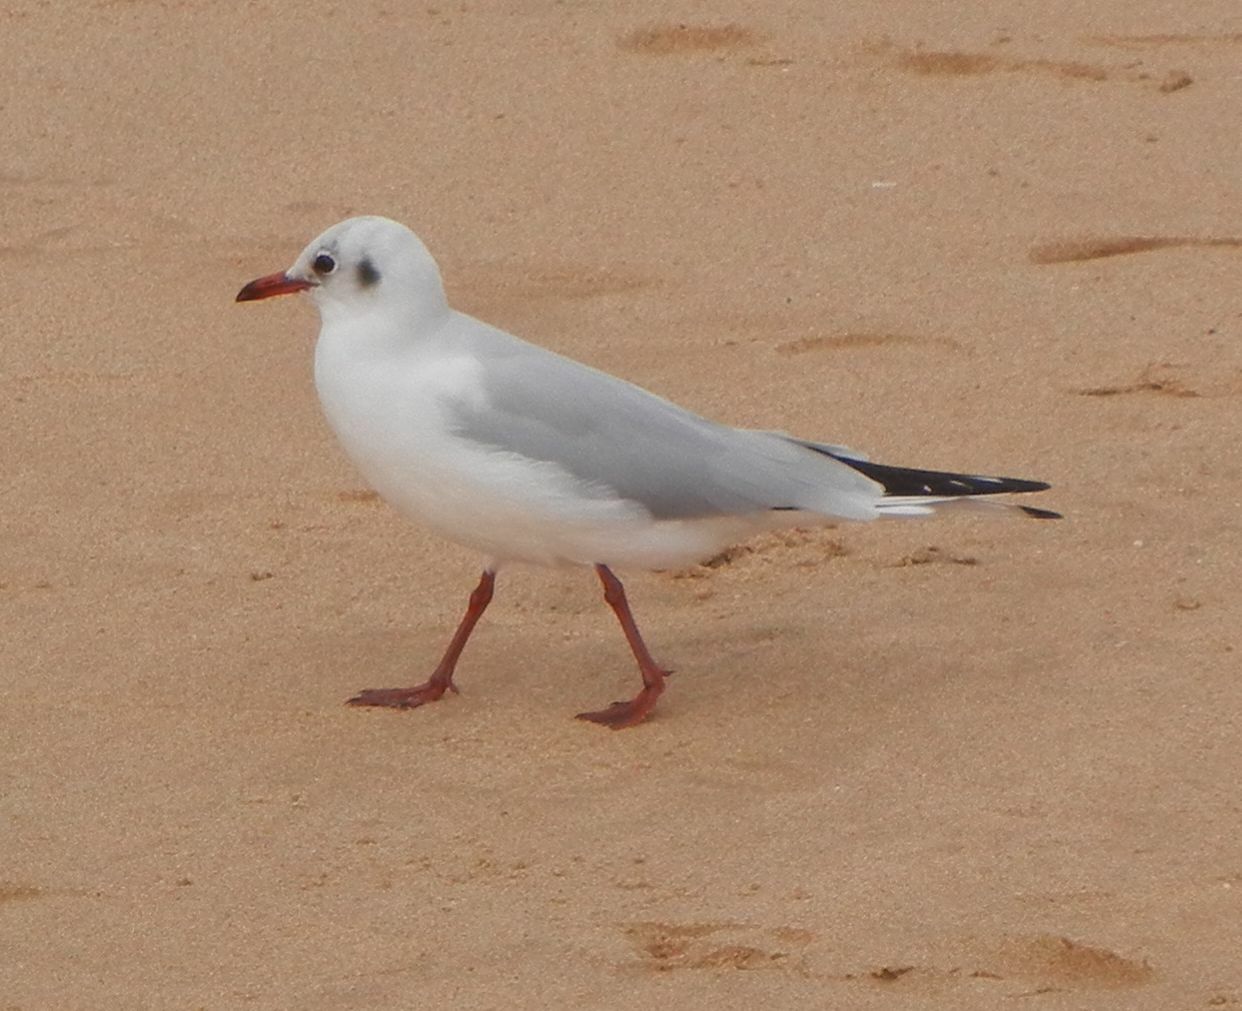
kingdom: Animalia
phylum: Chordata
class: Aves
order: Charadriiformes
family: Laridae
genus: Chroicocephalus
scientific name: Chroicocephalus ridibundus
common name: Black-headed gull
